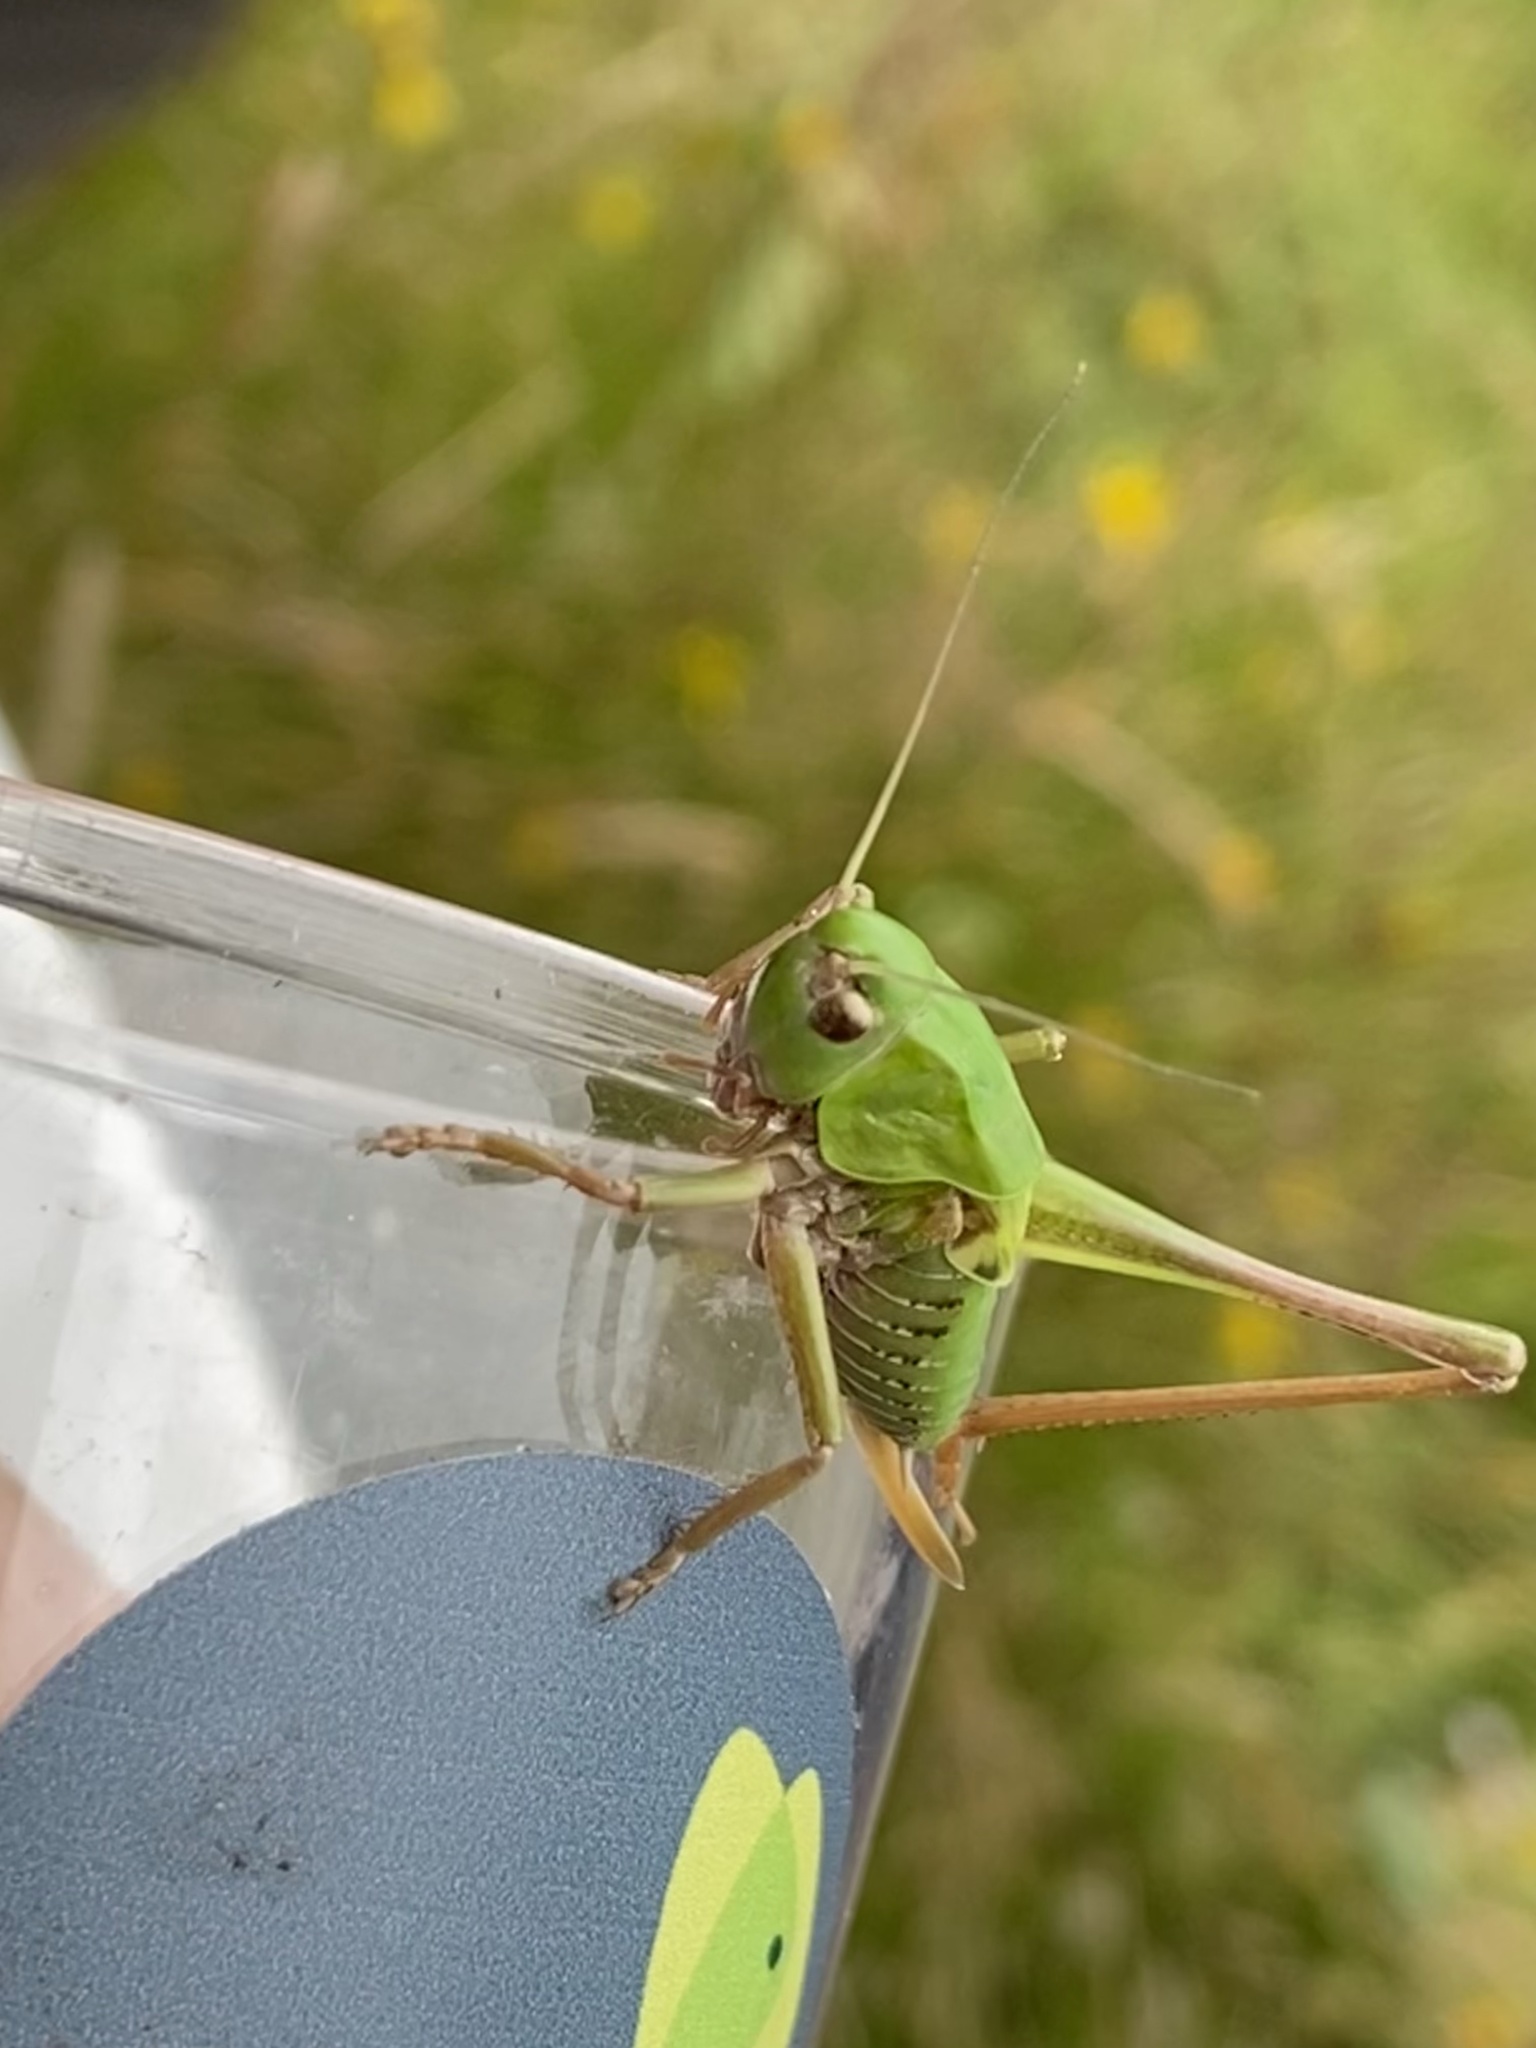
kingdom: Animalia
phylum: Arthropoda
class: Insecta
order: Orthoptera
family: Tettigoniidae
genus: Decticus
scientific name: Decticus verrucivorus
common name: Wart-biter
